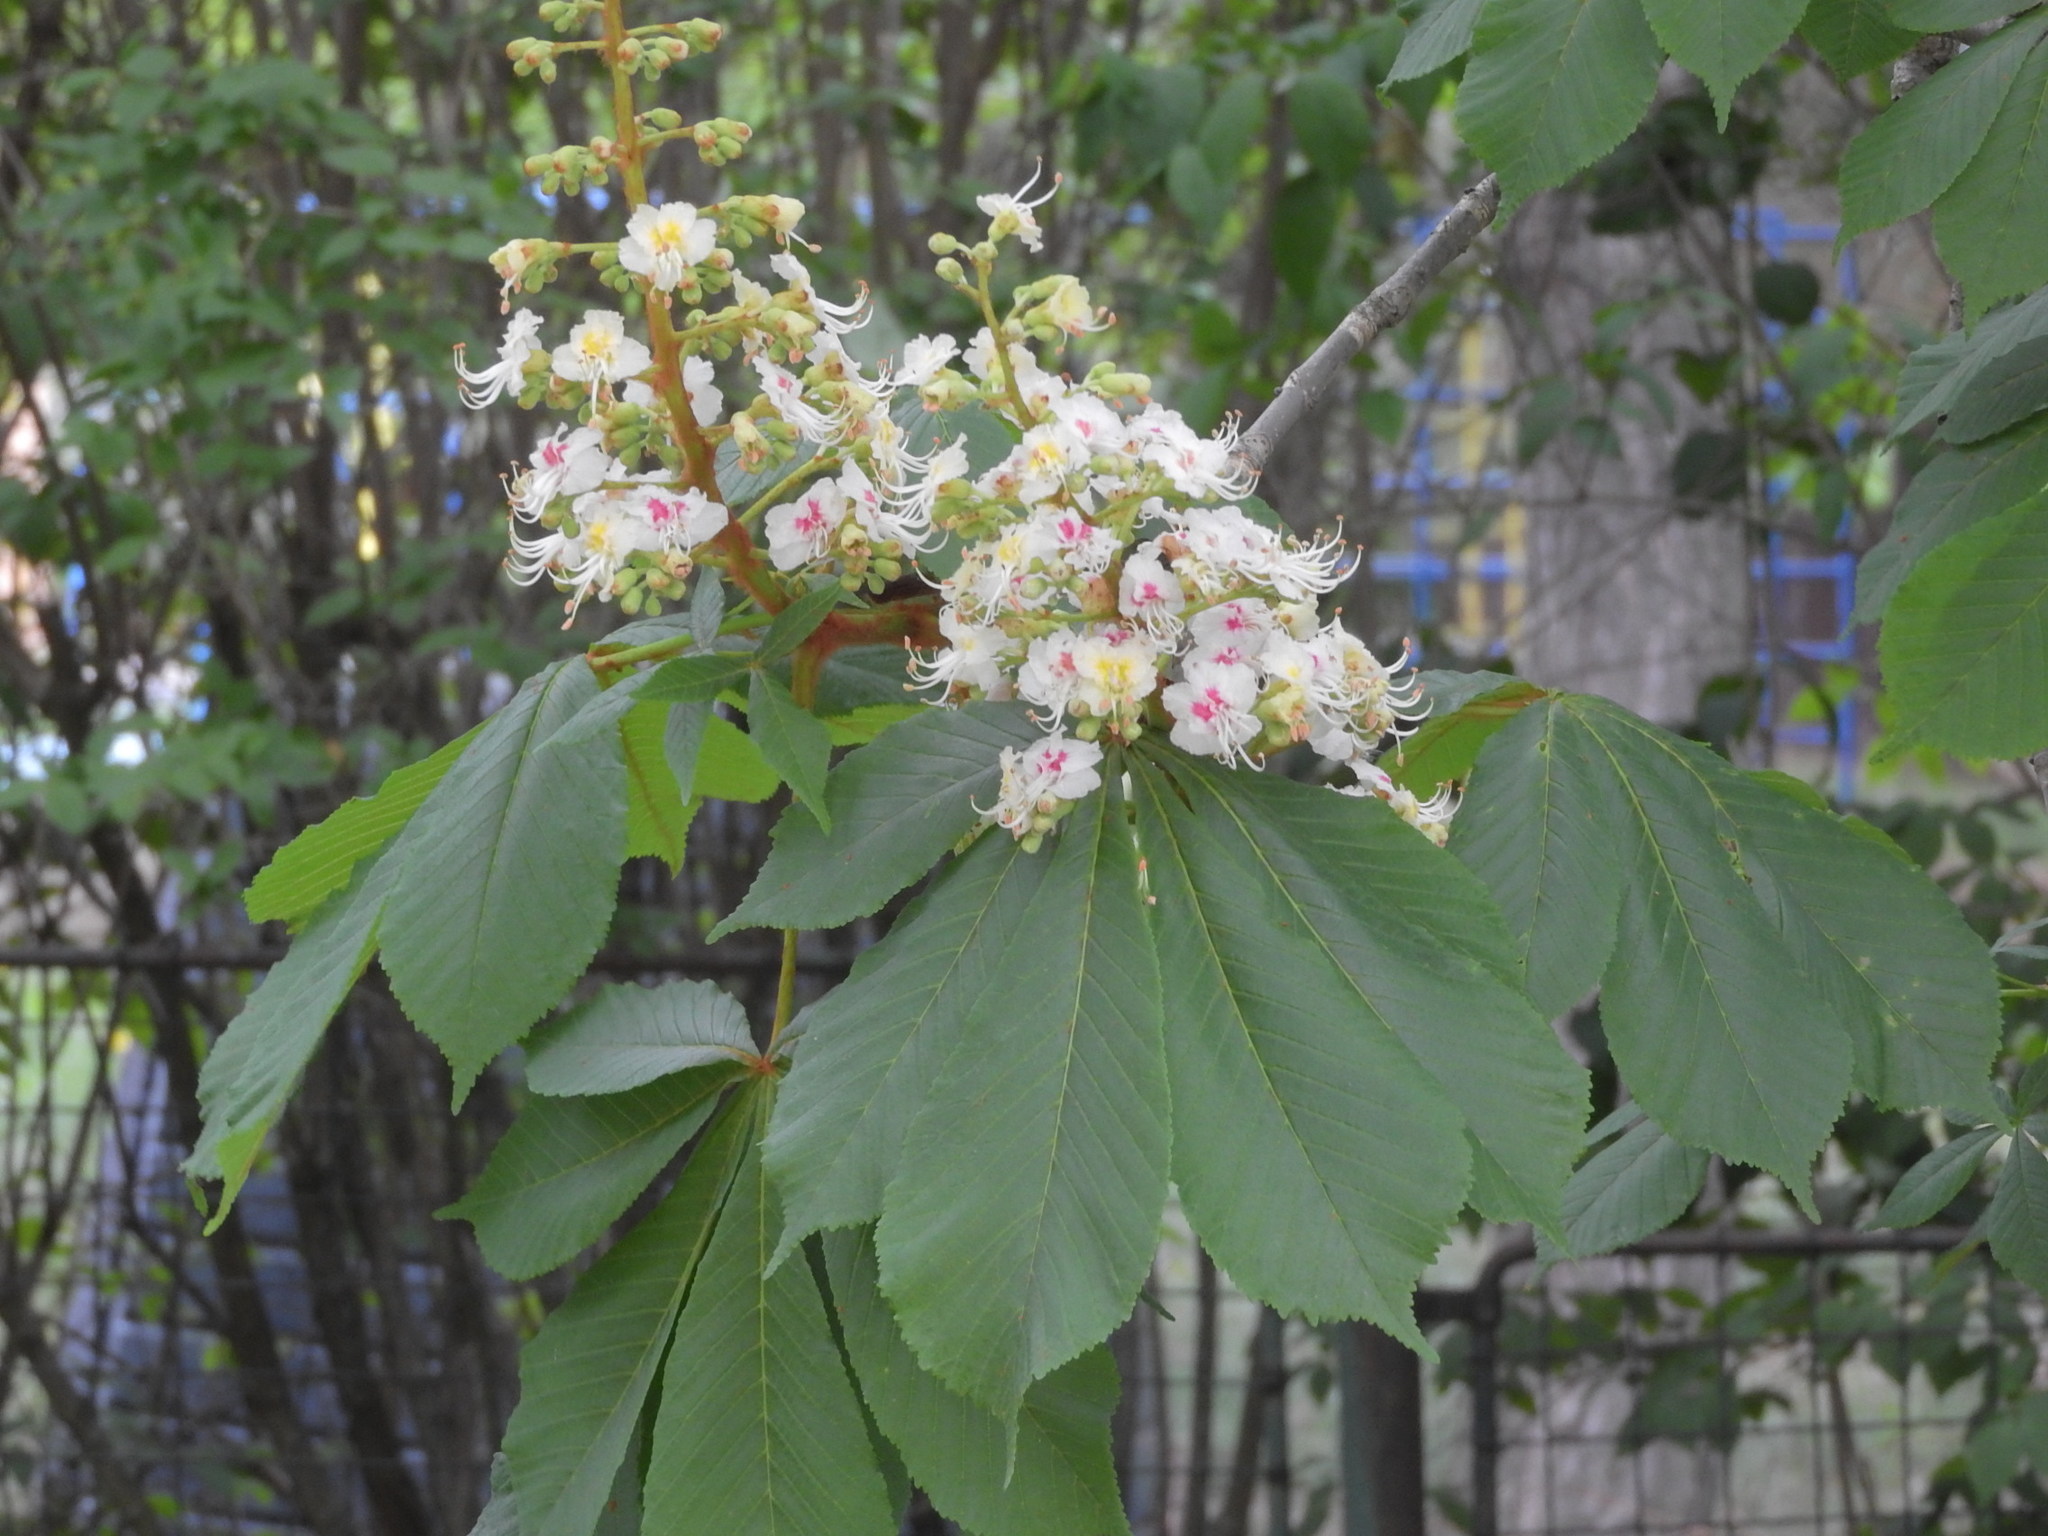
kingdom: Plantae
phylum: Tracheophyta
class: Magnoliopsida
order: Sapindales
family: Sapindaceae
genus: Aesculus
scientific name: Aesculus hippocastanum
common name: Horse-chestnut
